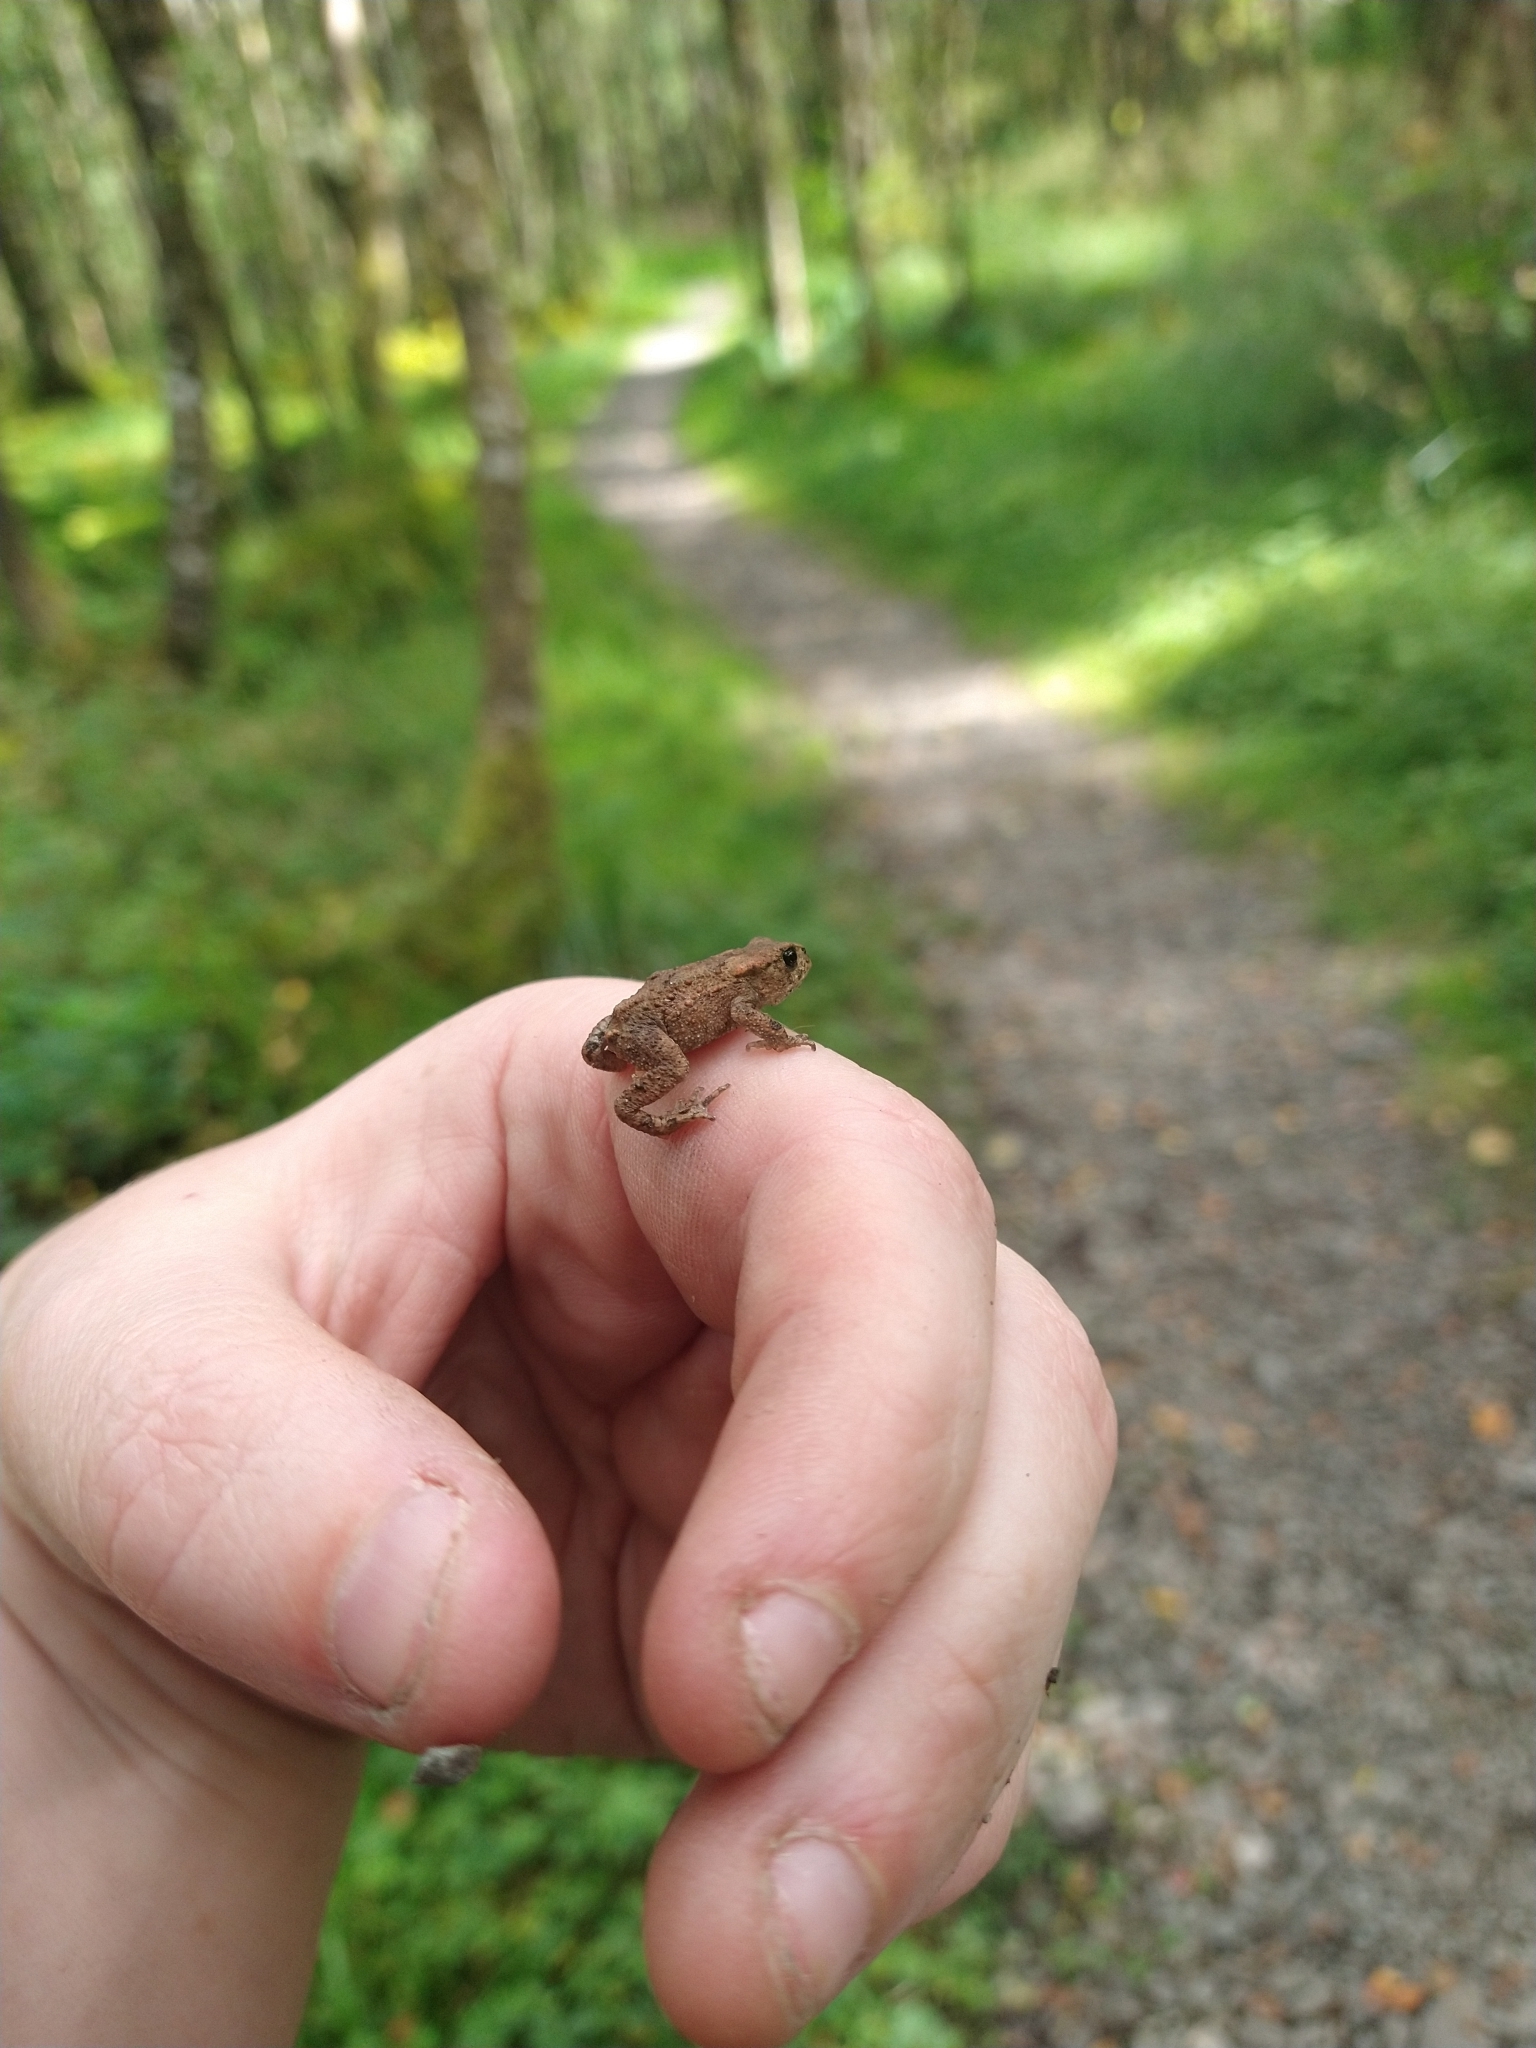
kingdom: Animalia
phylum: Chordata
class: Amphibia
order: Anura
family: Bufonidae
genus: Bufo
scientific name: Bufo bufo
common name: Common toad
